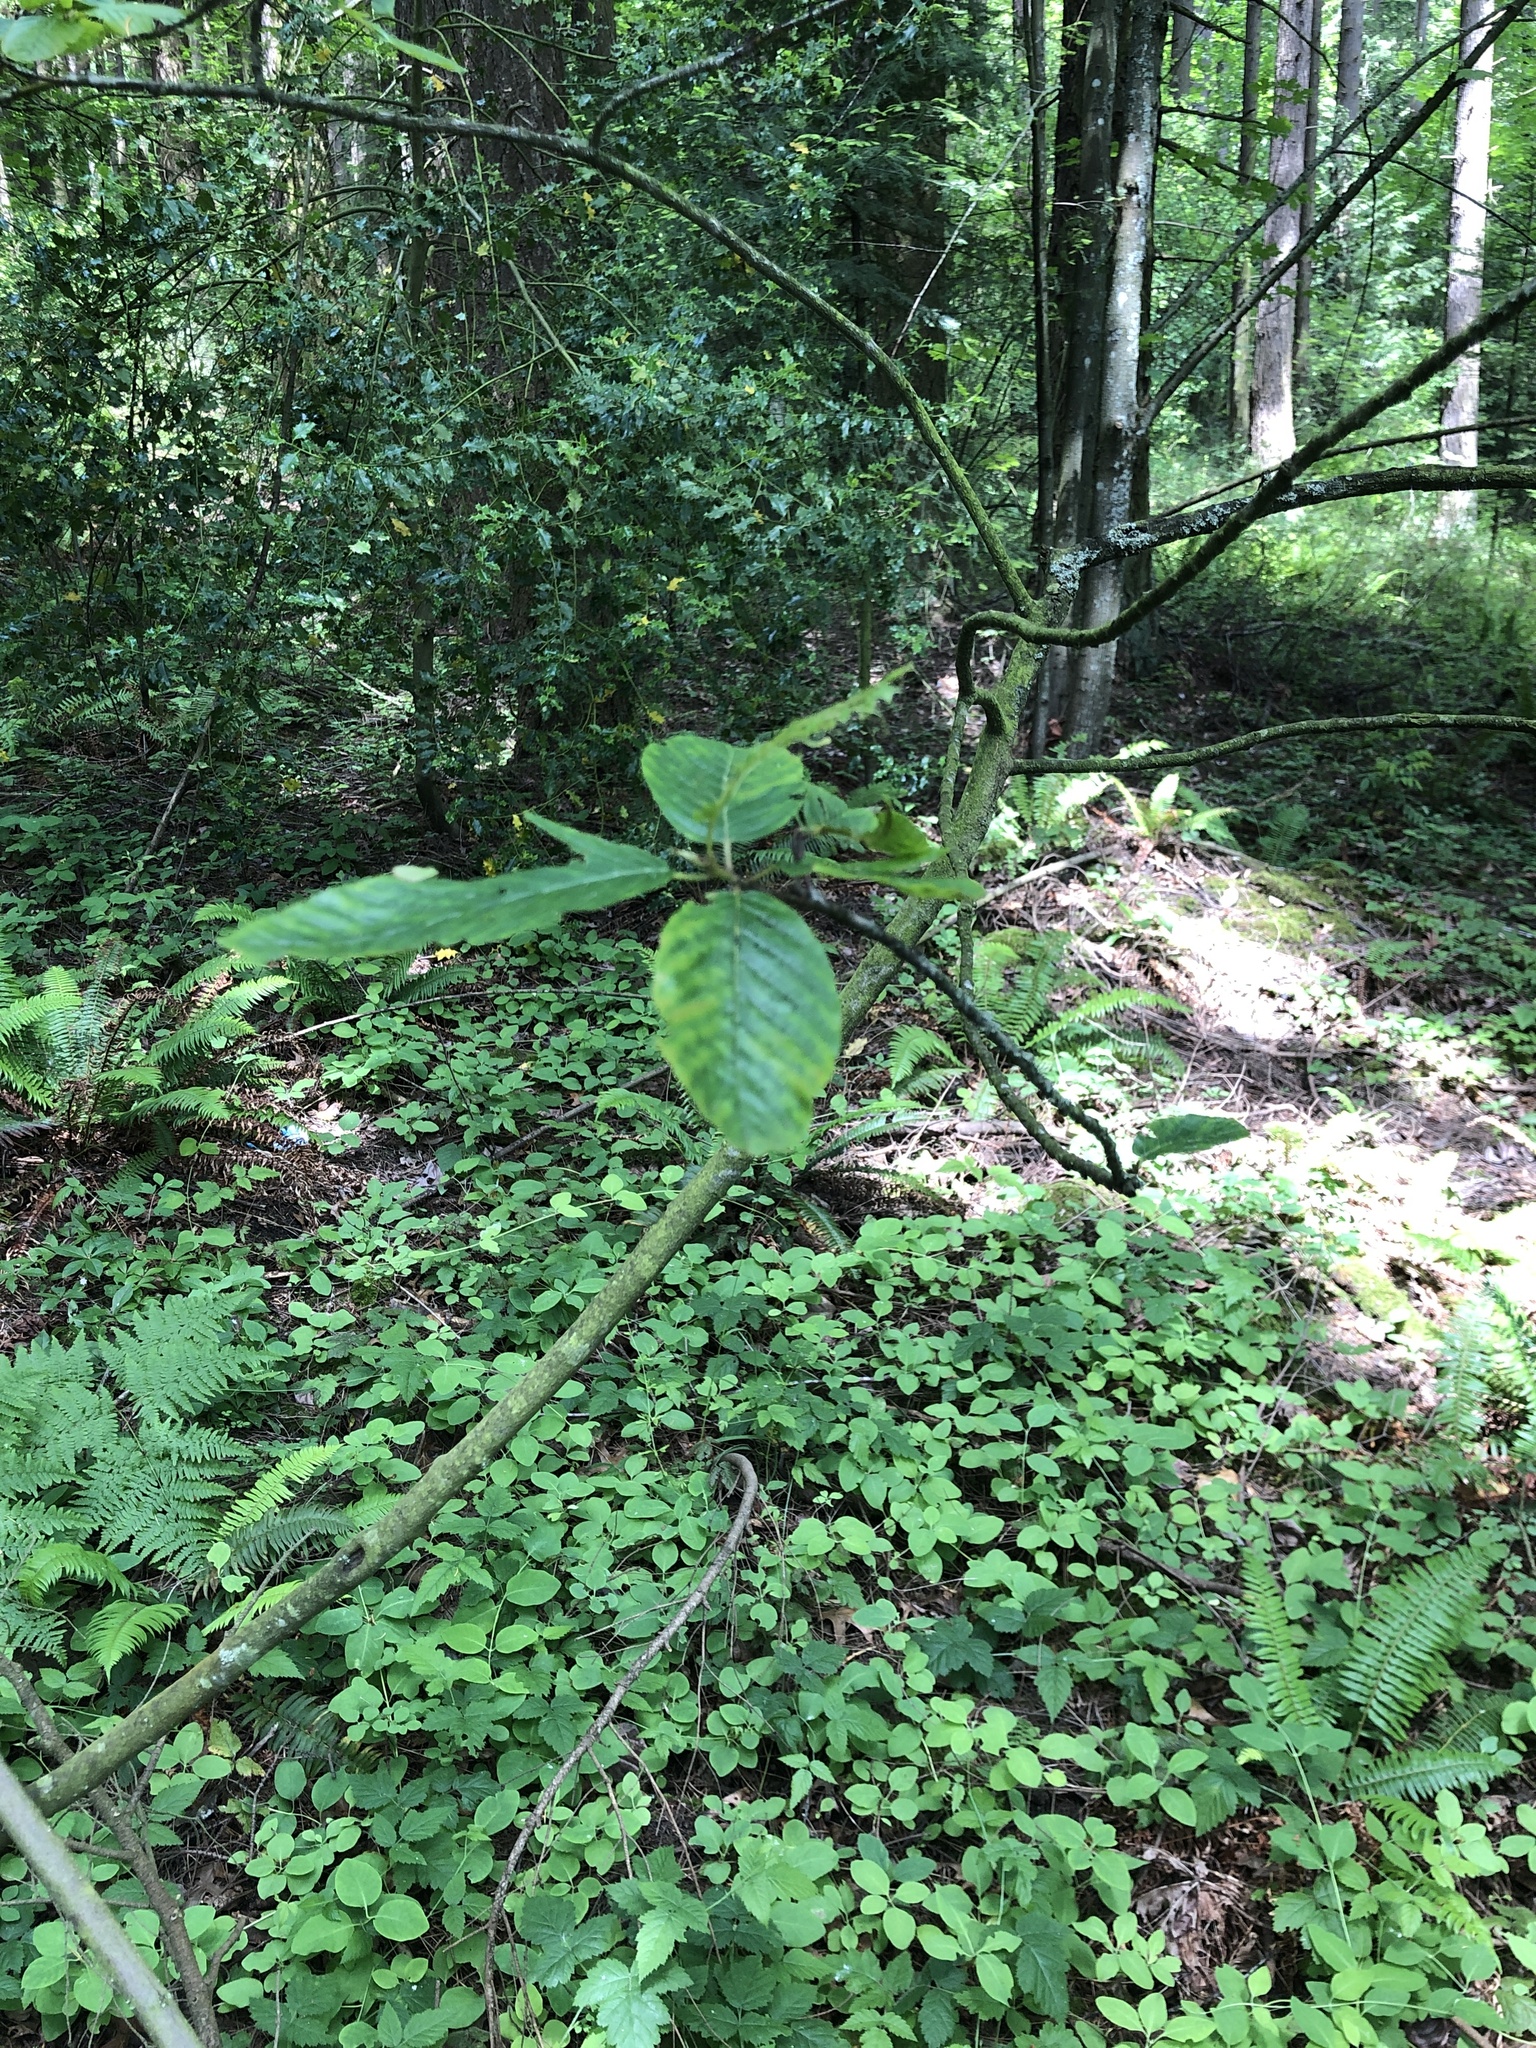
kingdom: Plantae
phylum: Tracheophyta
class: Magnoliopsida
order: Rosales
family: Rhamnaceae
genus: Frangula
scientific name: Frangula purshiana
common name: Cascara buckthorn
